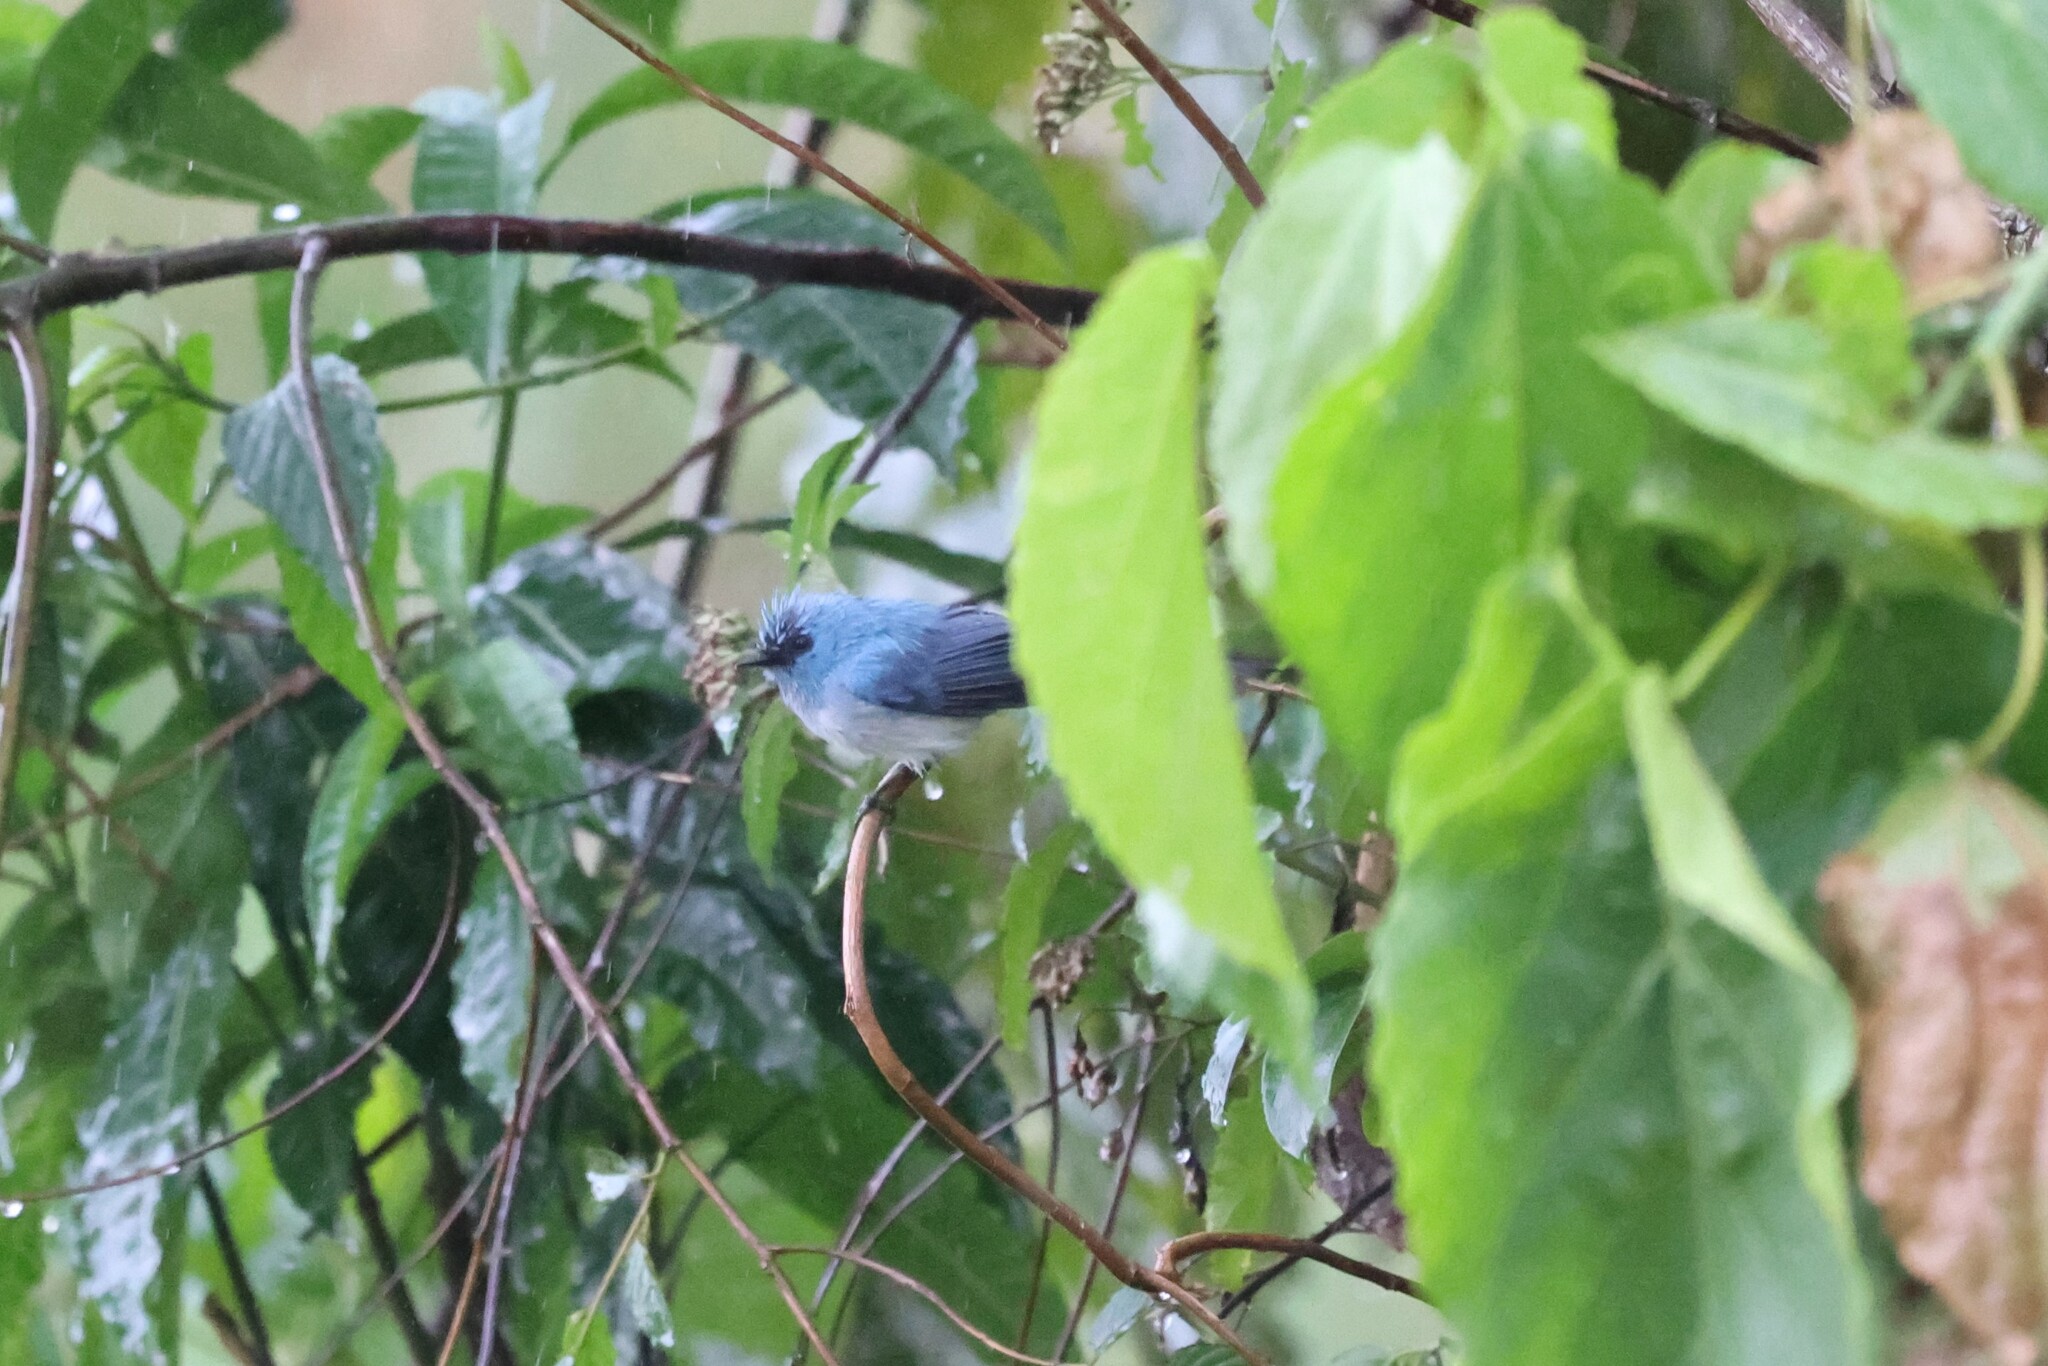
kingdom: Animalia
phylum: Chordata
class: Aves
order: Passeriformes
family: Stenostiridae
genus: Elminia
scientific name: Elminia longicauda
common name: African blue flycatcher
